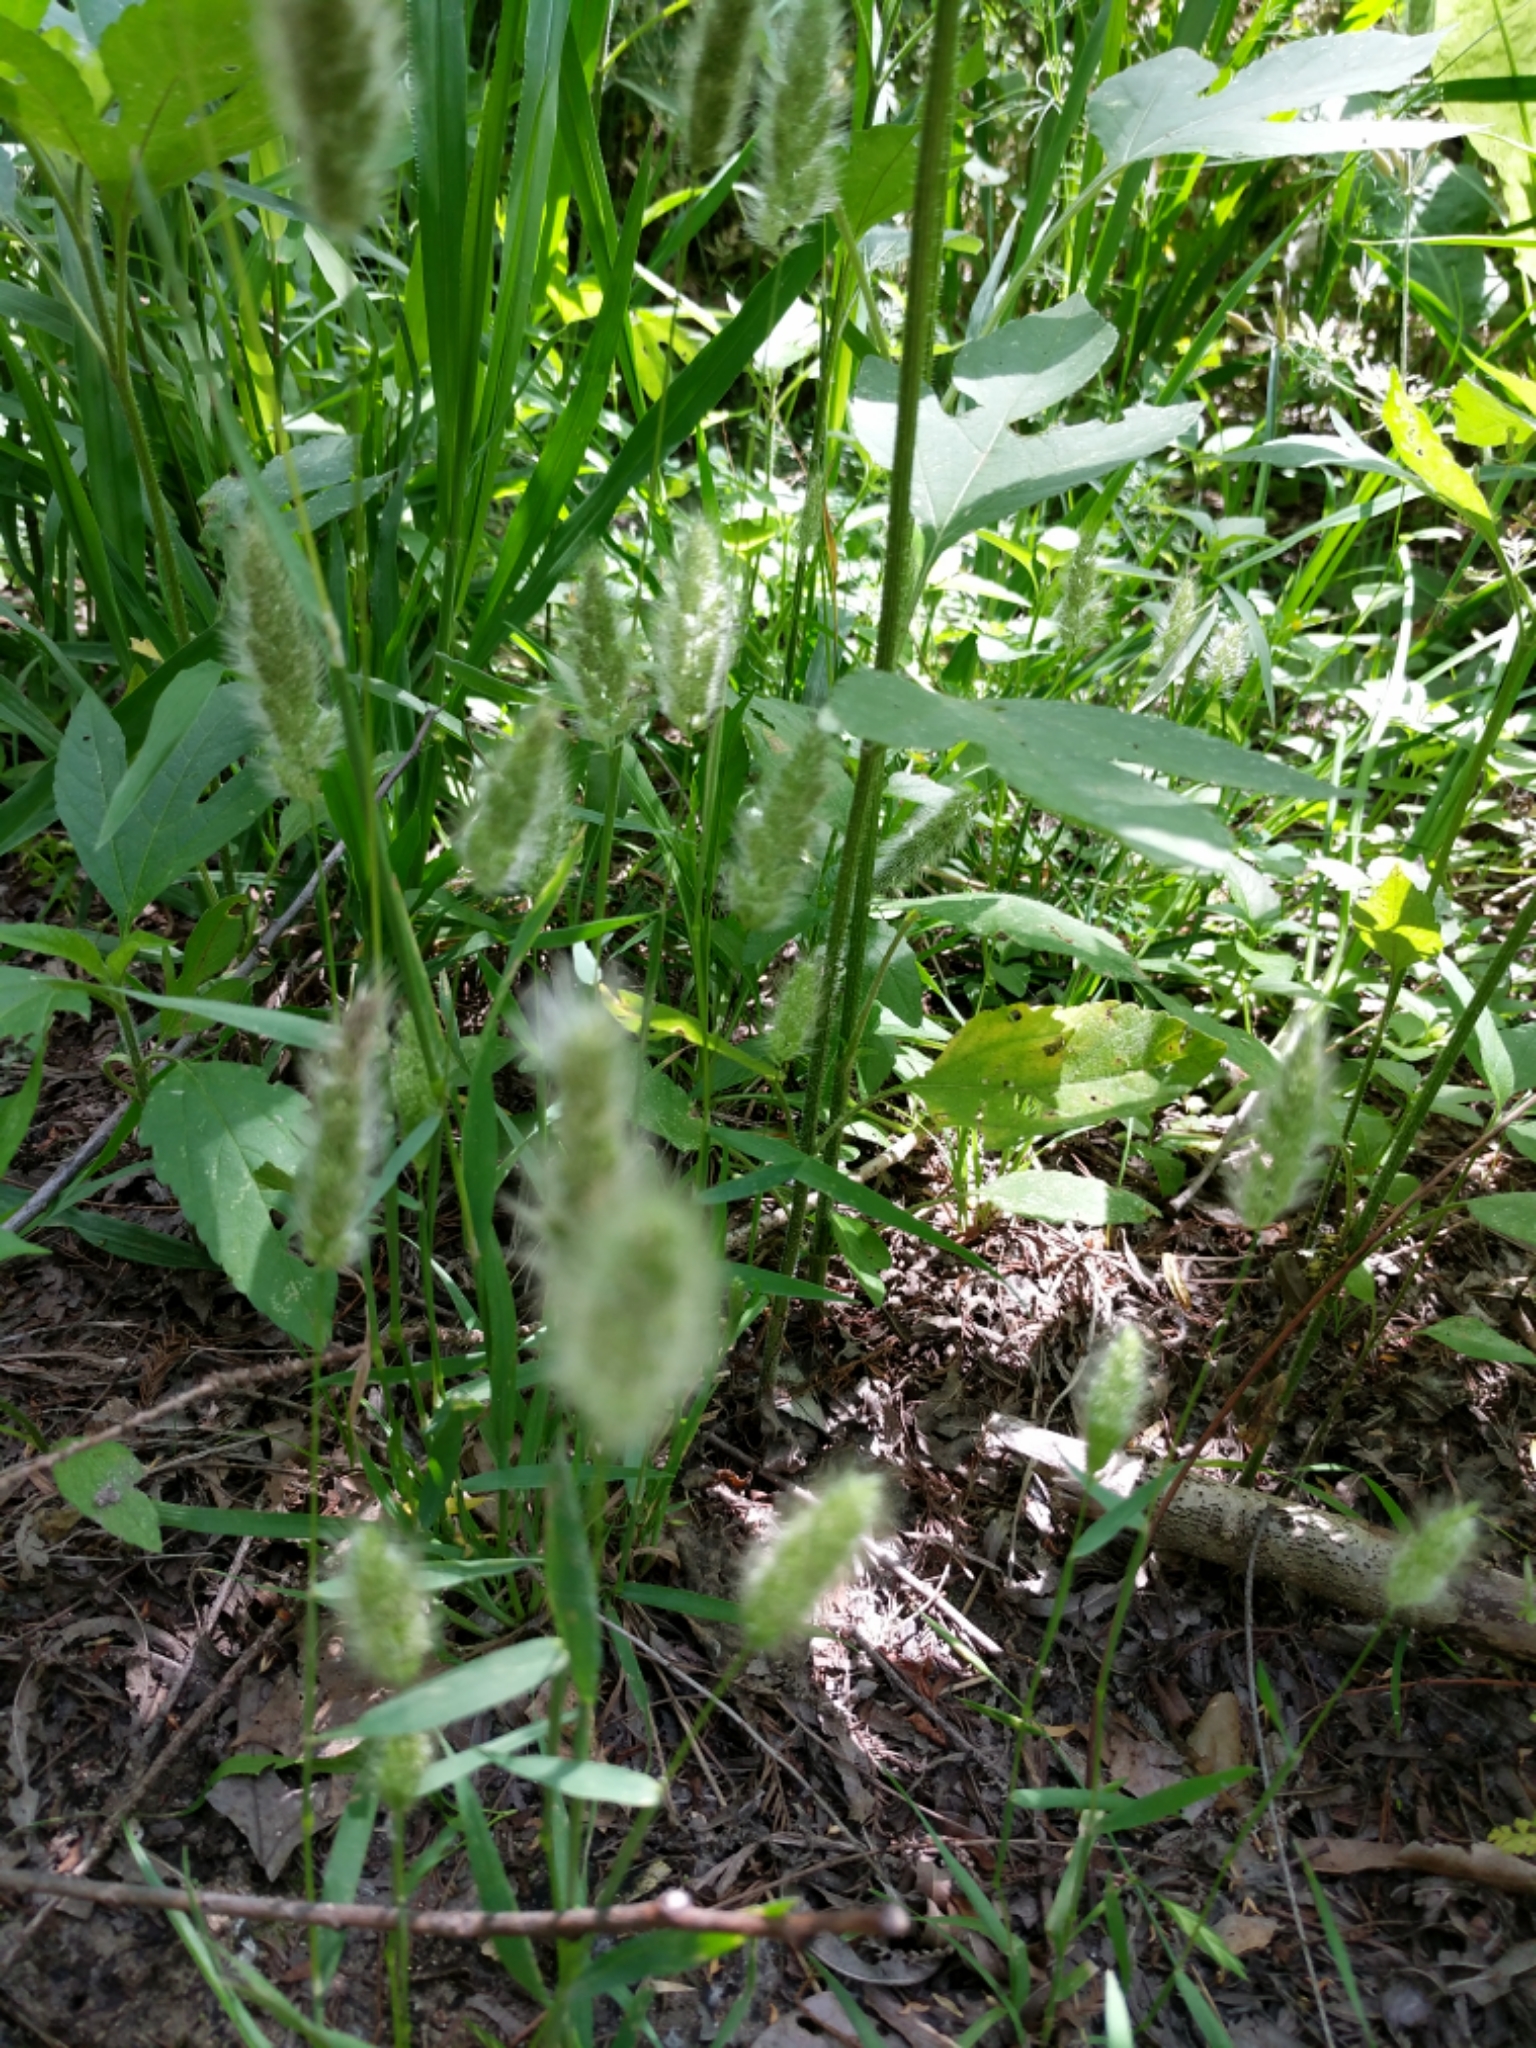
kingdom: Plantae
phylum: Tracheophyta
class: Liliopsida
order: Poales
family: Poaceae
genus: Polypogon
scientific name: Polypogon monspeliensis
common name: Annual rabbitsfoot grass
